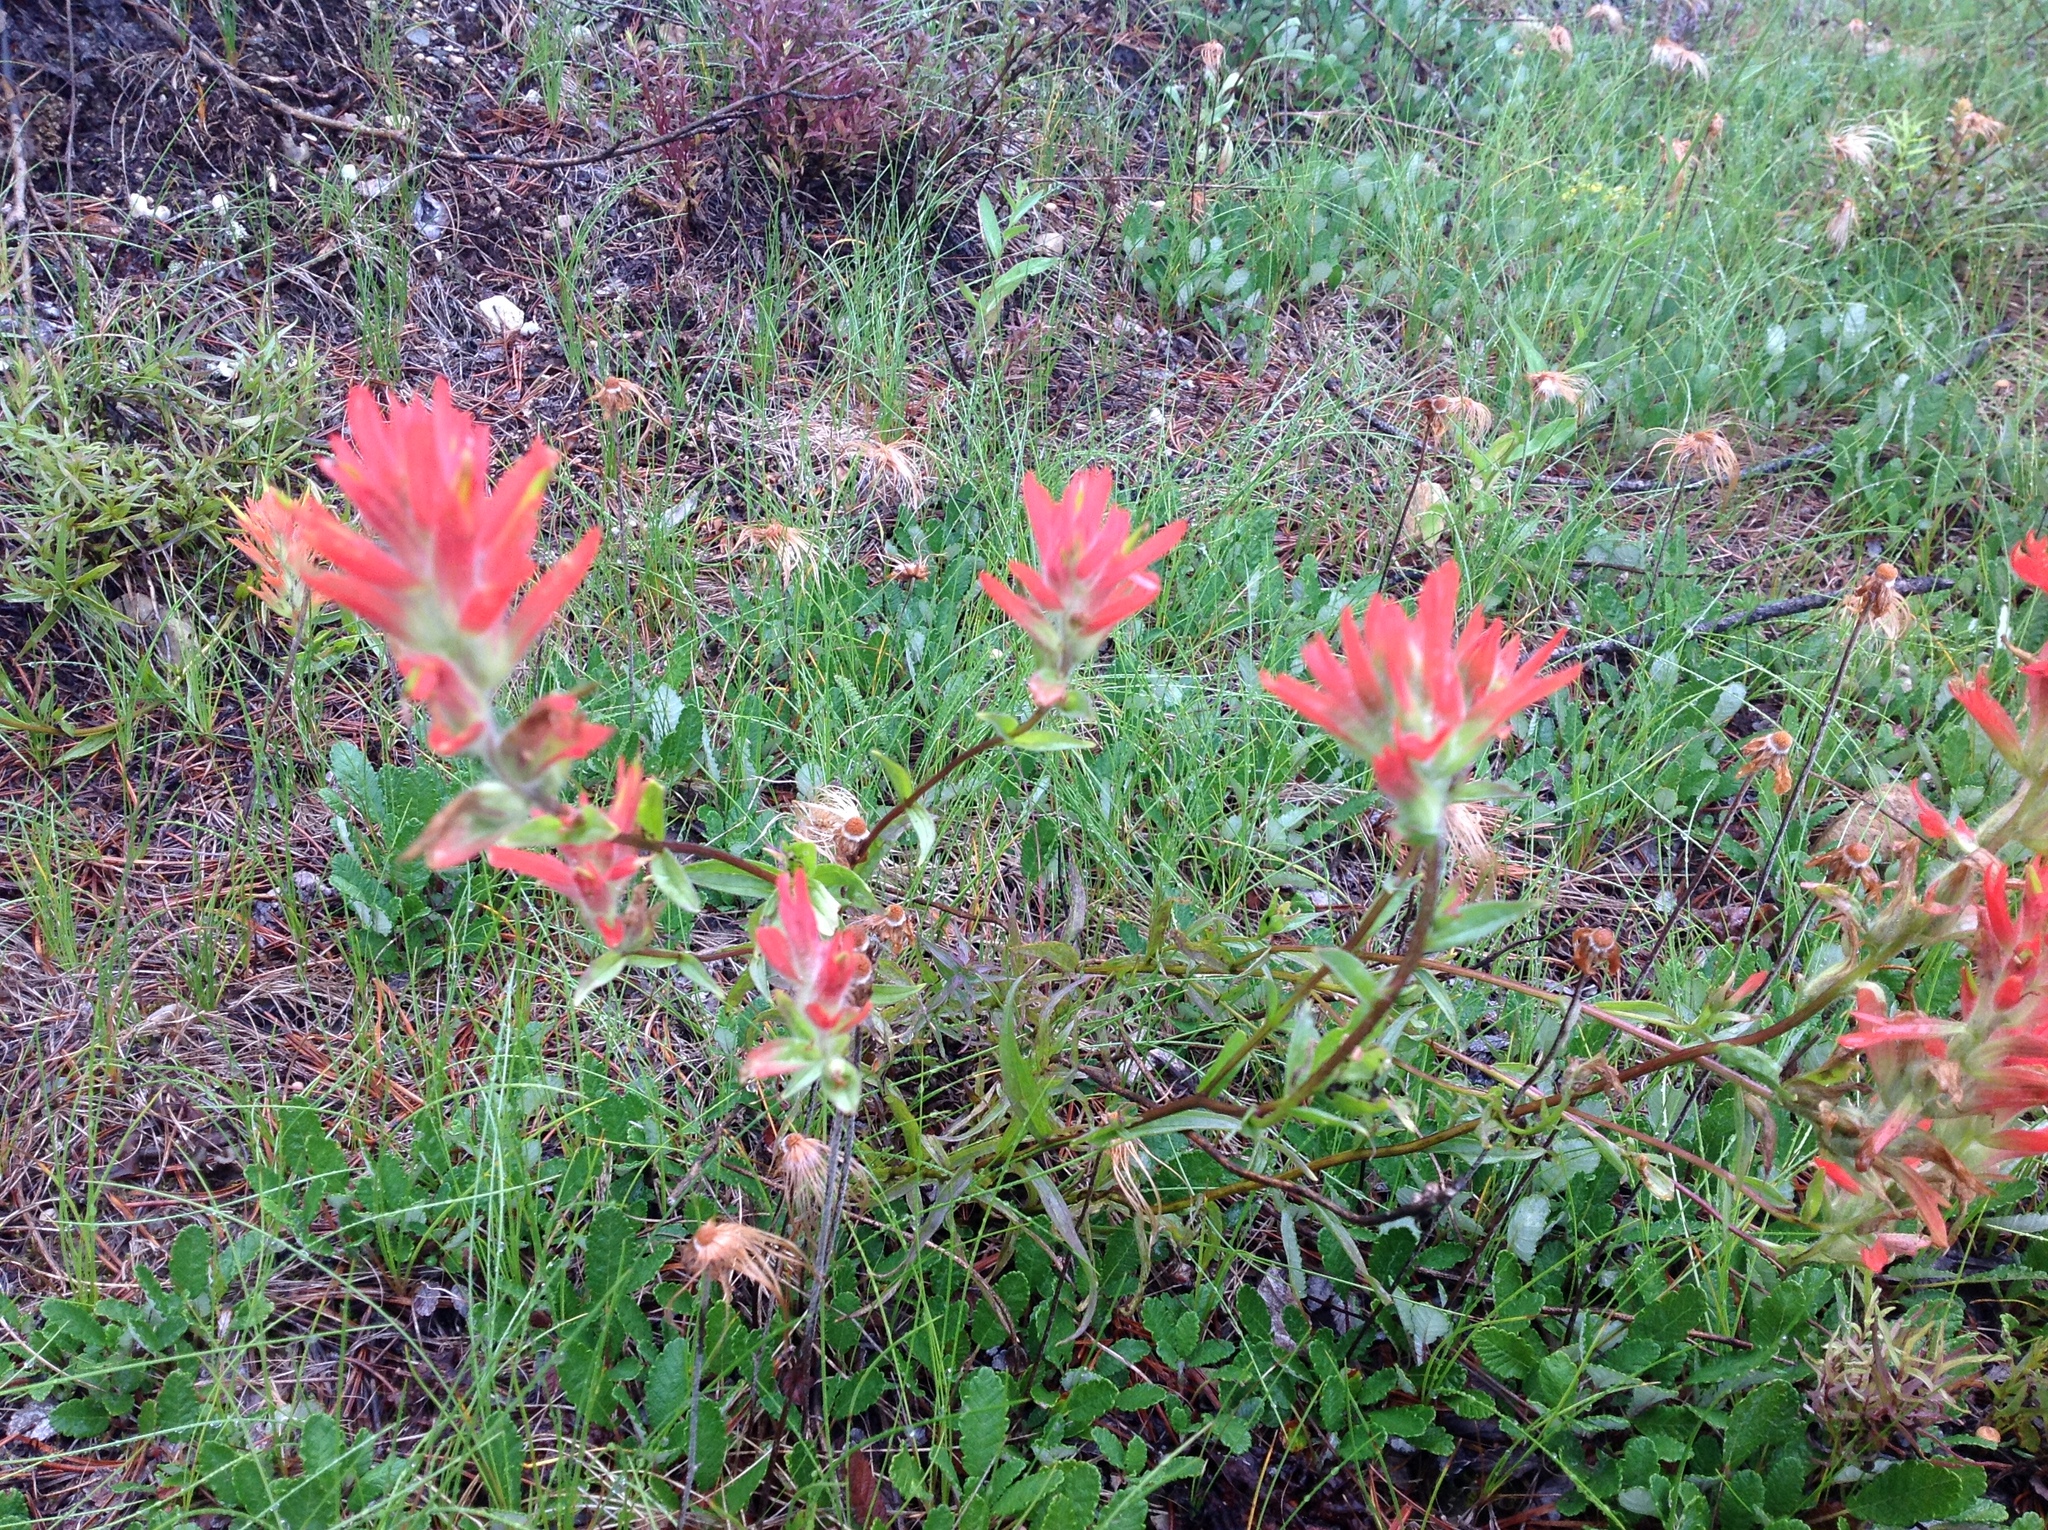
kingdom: Plantae
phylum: Tracheophyta
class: Magnoliopsida
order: Lamiales
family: Orobanchaceae
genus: Castilleja
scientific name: Castilleja miniata
